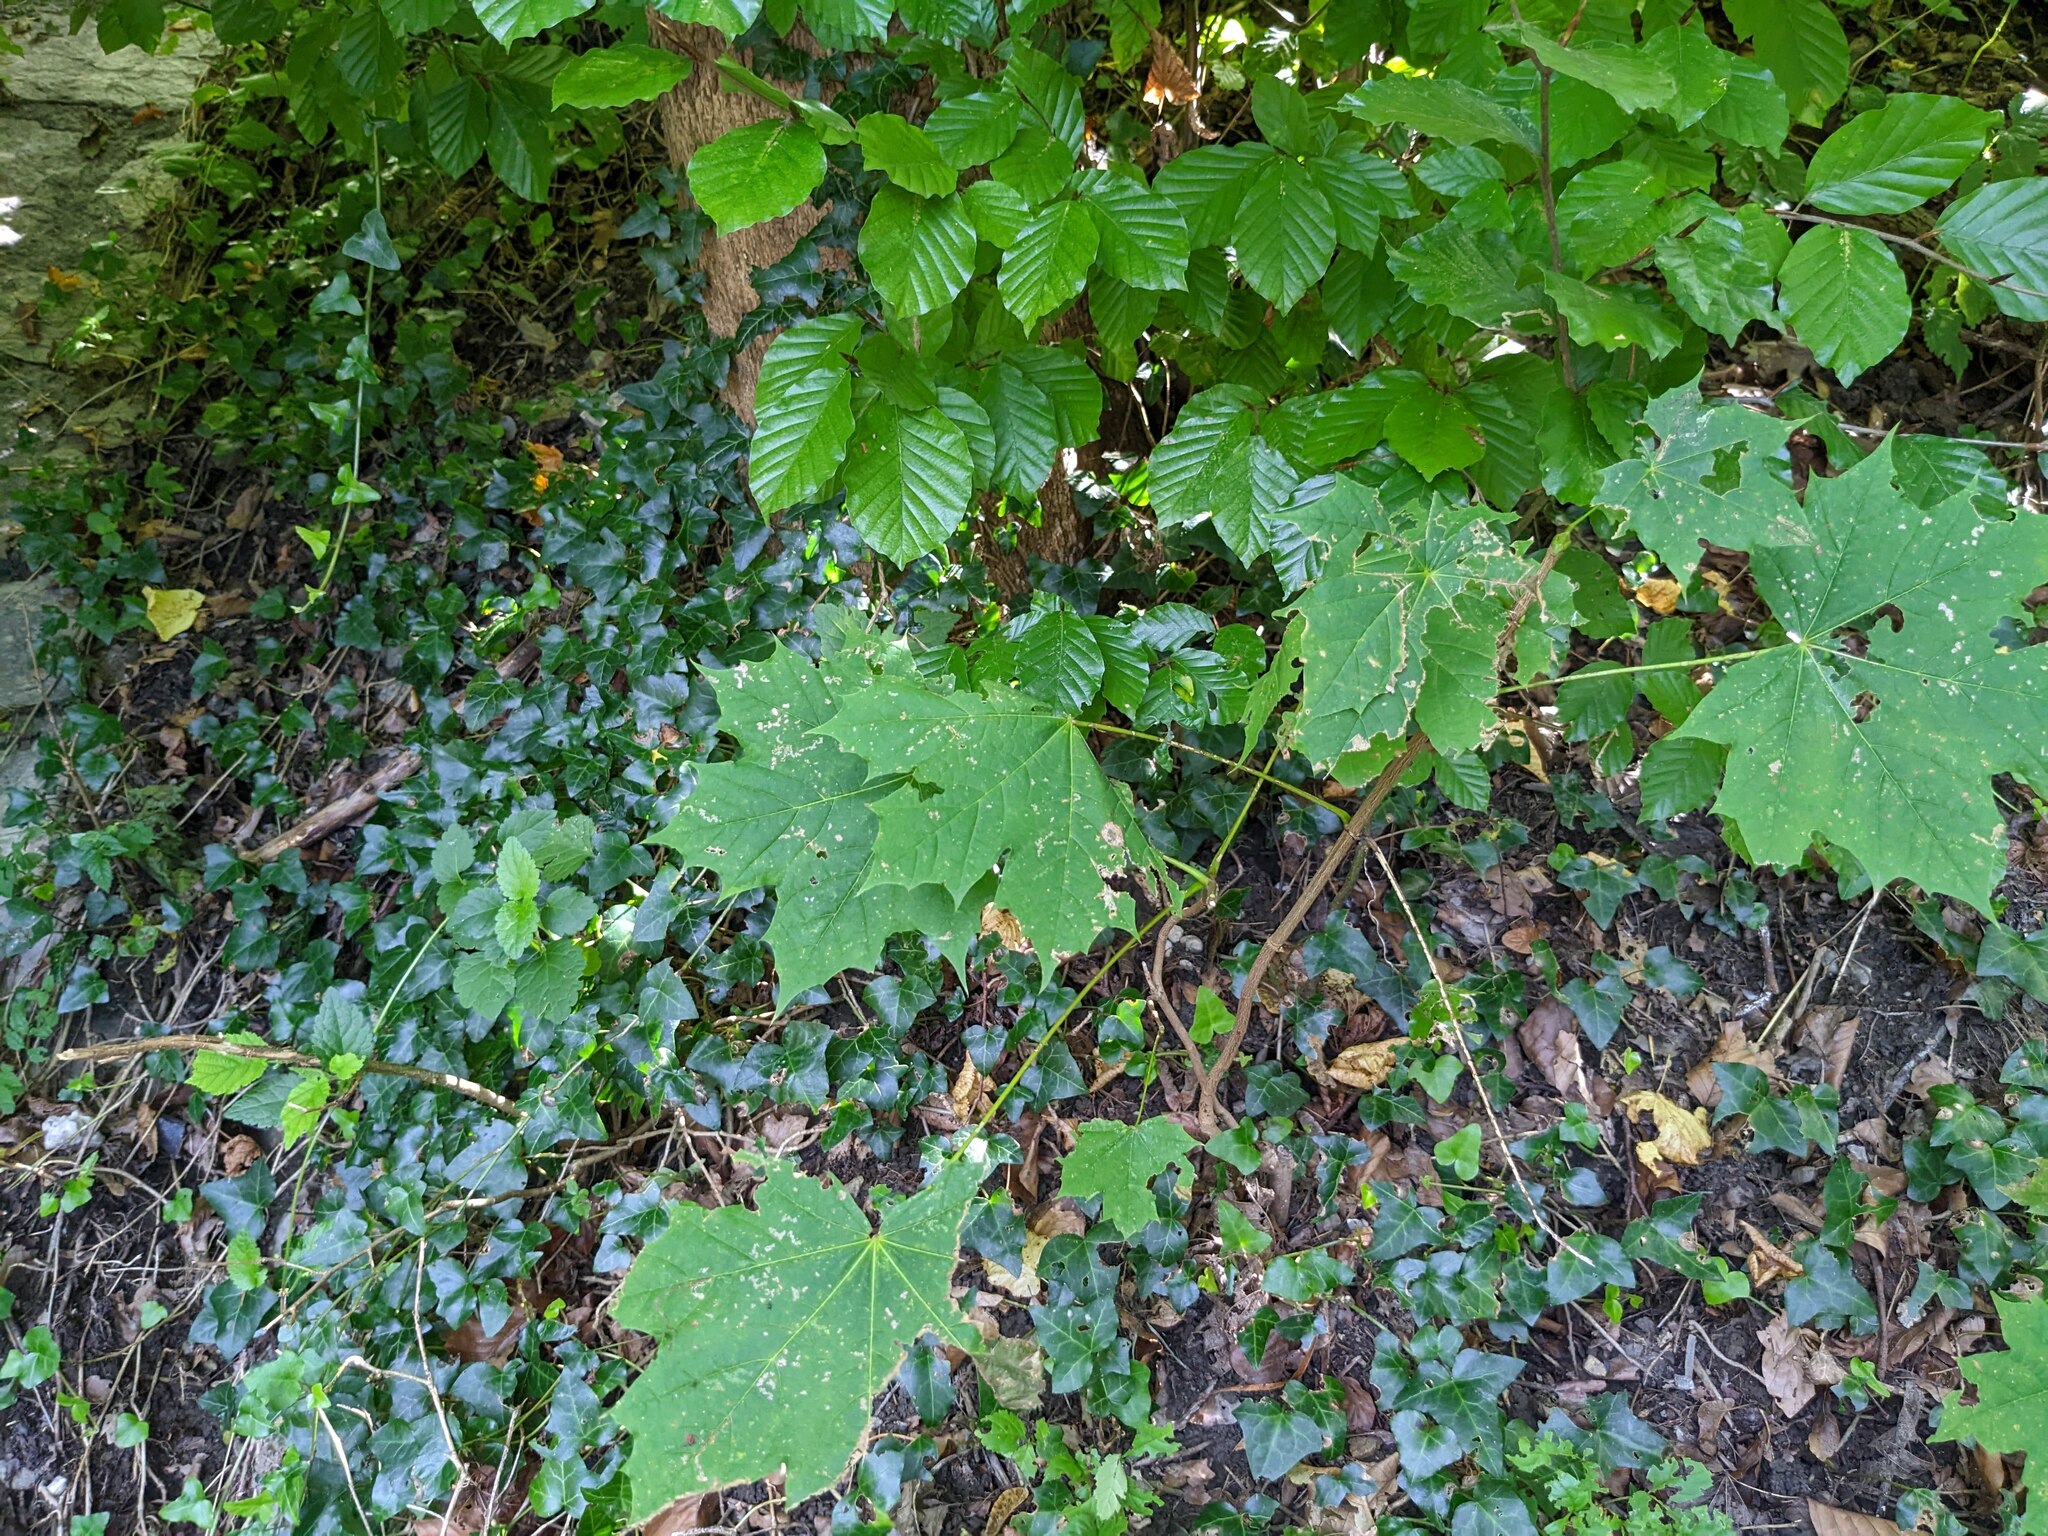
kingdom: Plantae
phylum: Tracheophyta
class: Magnoliopsida
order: Sapindales
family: Sapindaceae
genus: Acer
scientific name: Acer platanoides
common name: Norway maple
